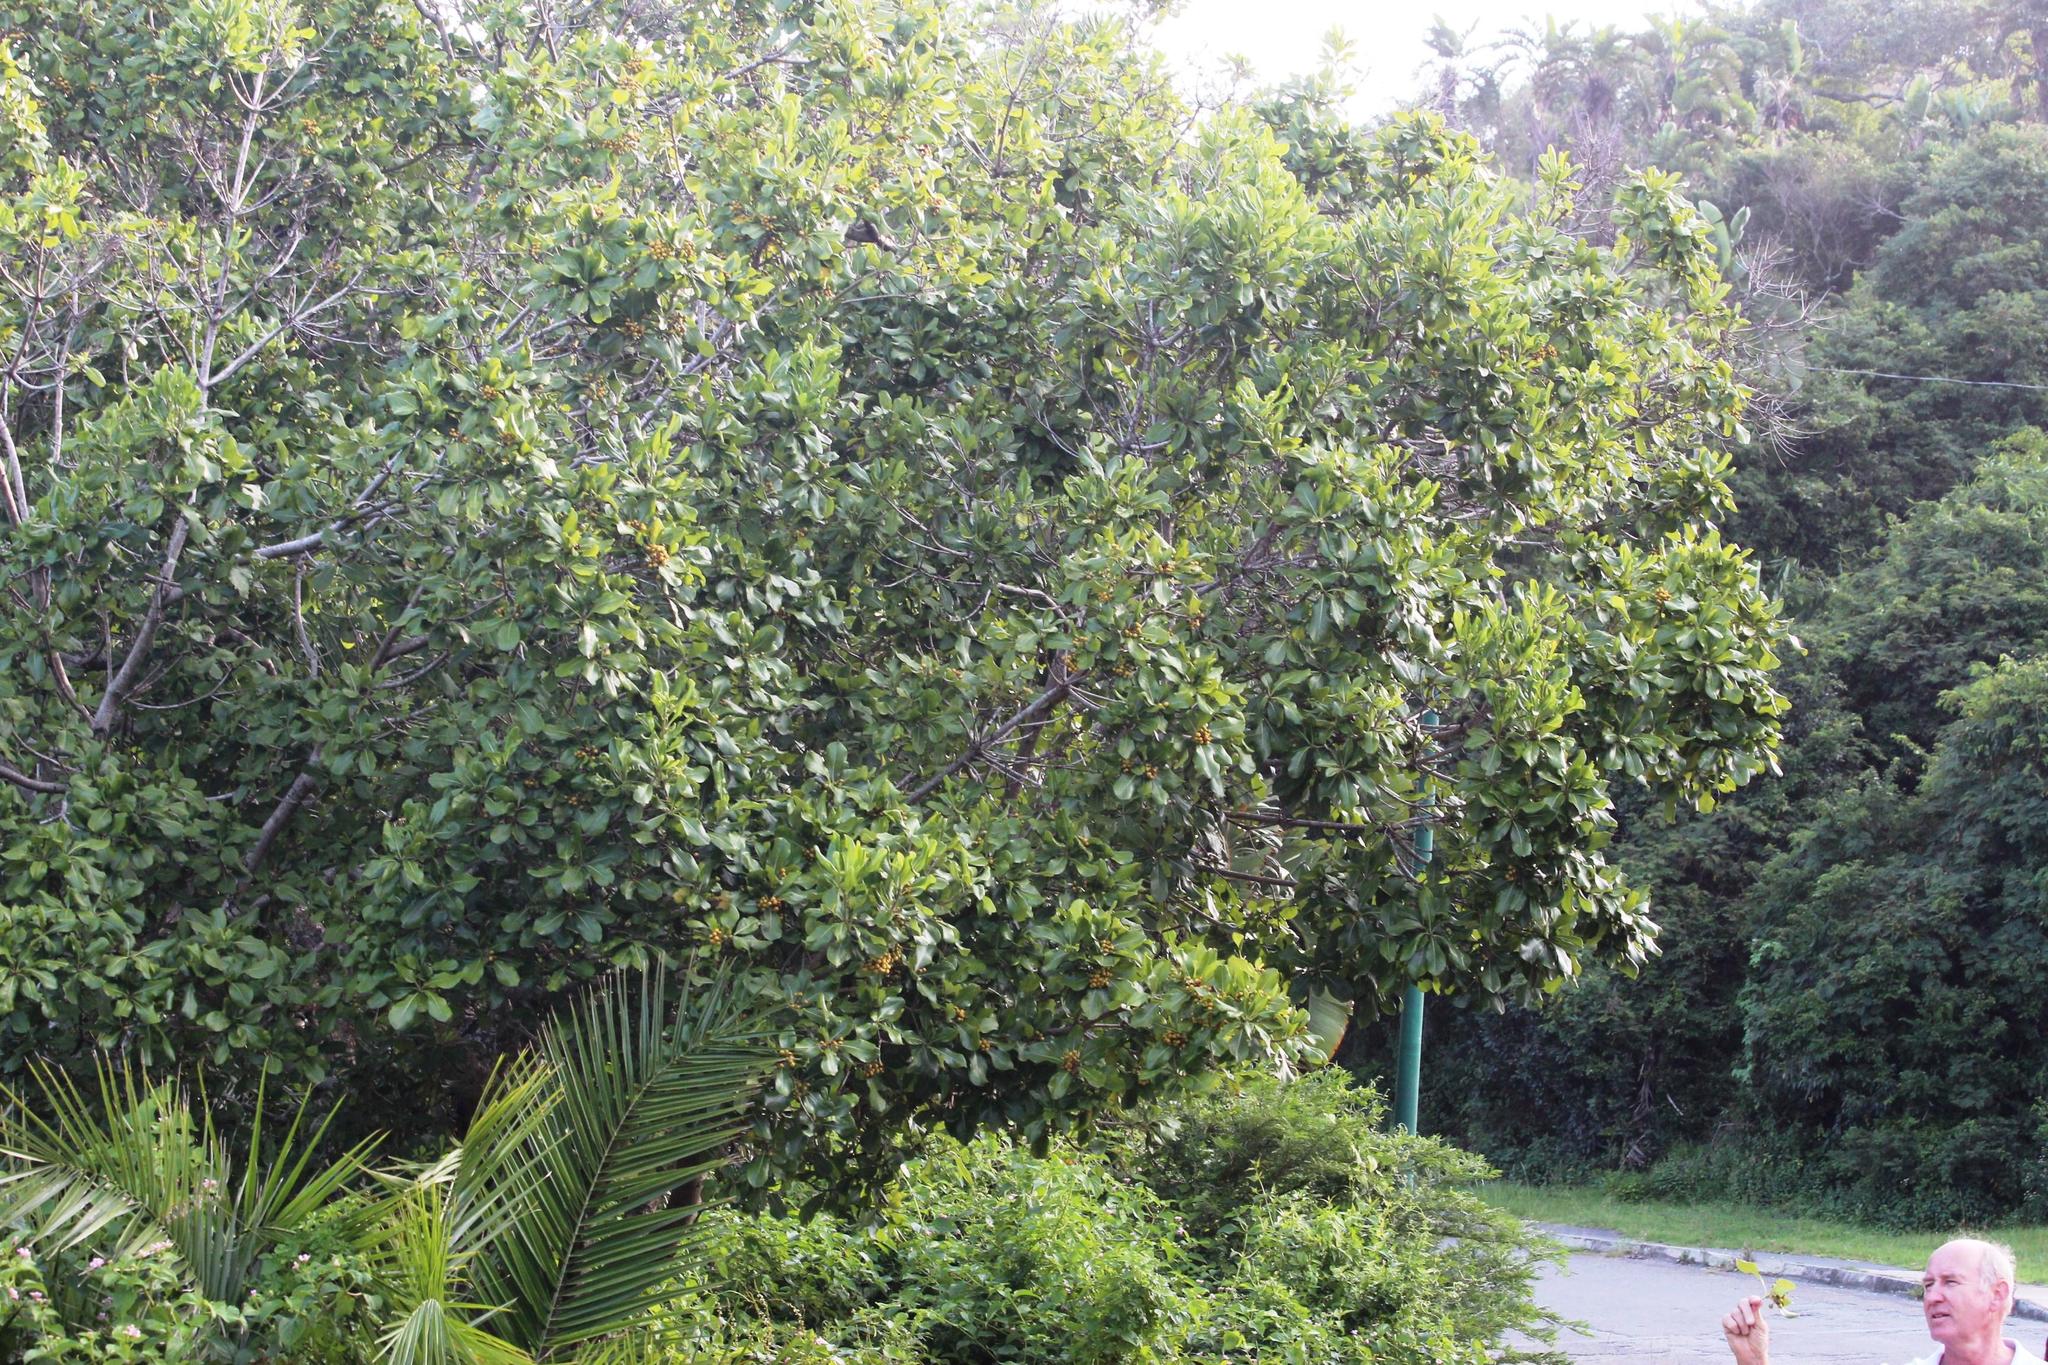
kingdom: Plantae
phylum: Tracheophyta
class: Magnoliopsida
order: Apiales
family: Pittosporaceae
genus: Pittosporum
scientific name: Pittosporum viridiflorum
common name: Cape cheesewood
